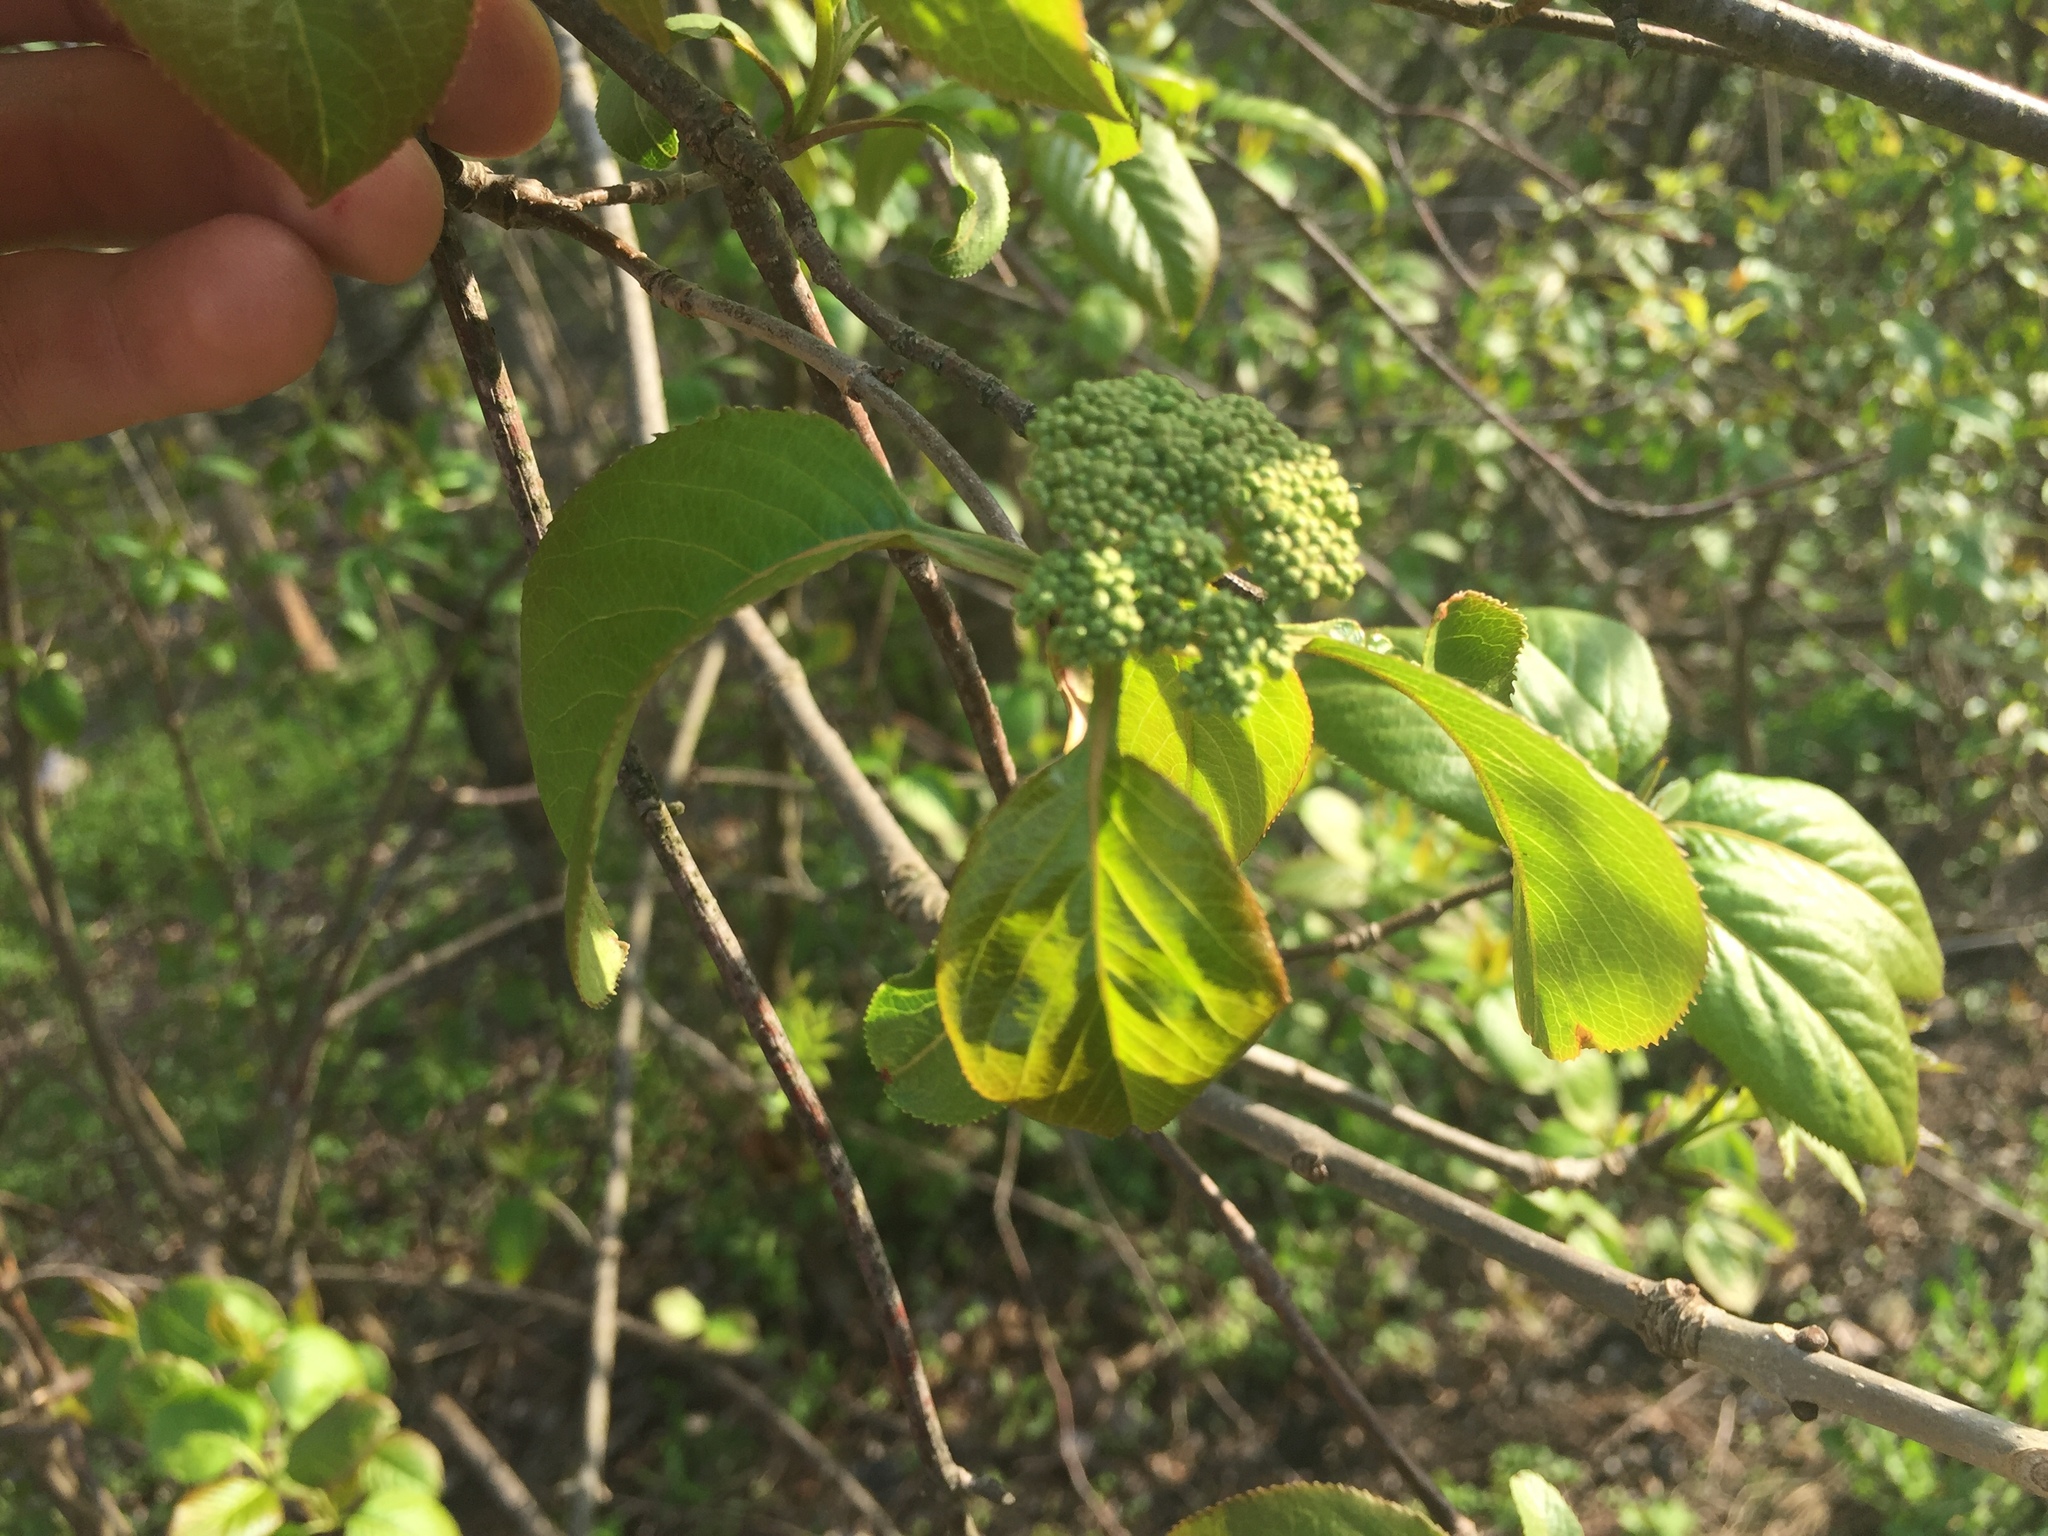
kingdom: Plantae
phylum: Tracheophyta
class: Magnoliopsida
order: Dipsacales
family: Viburnaceae
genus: Viburnum
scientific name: Viburnum lentago
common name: Black haw
